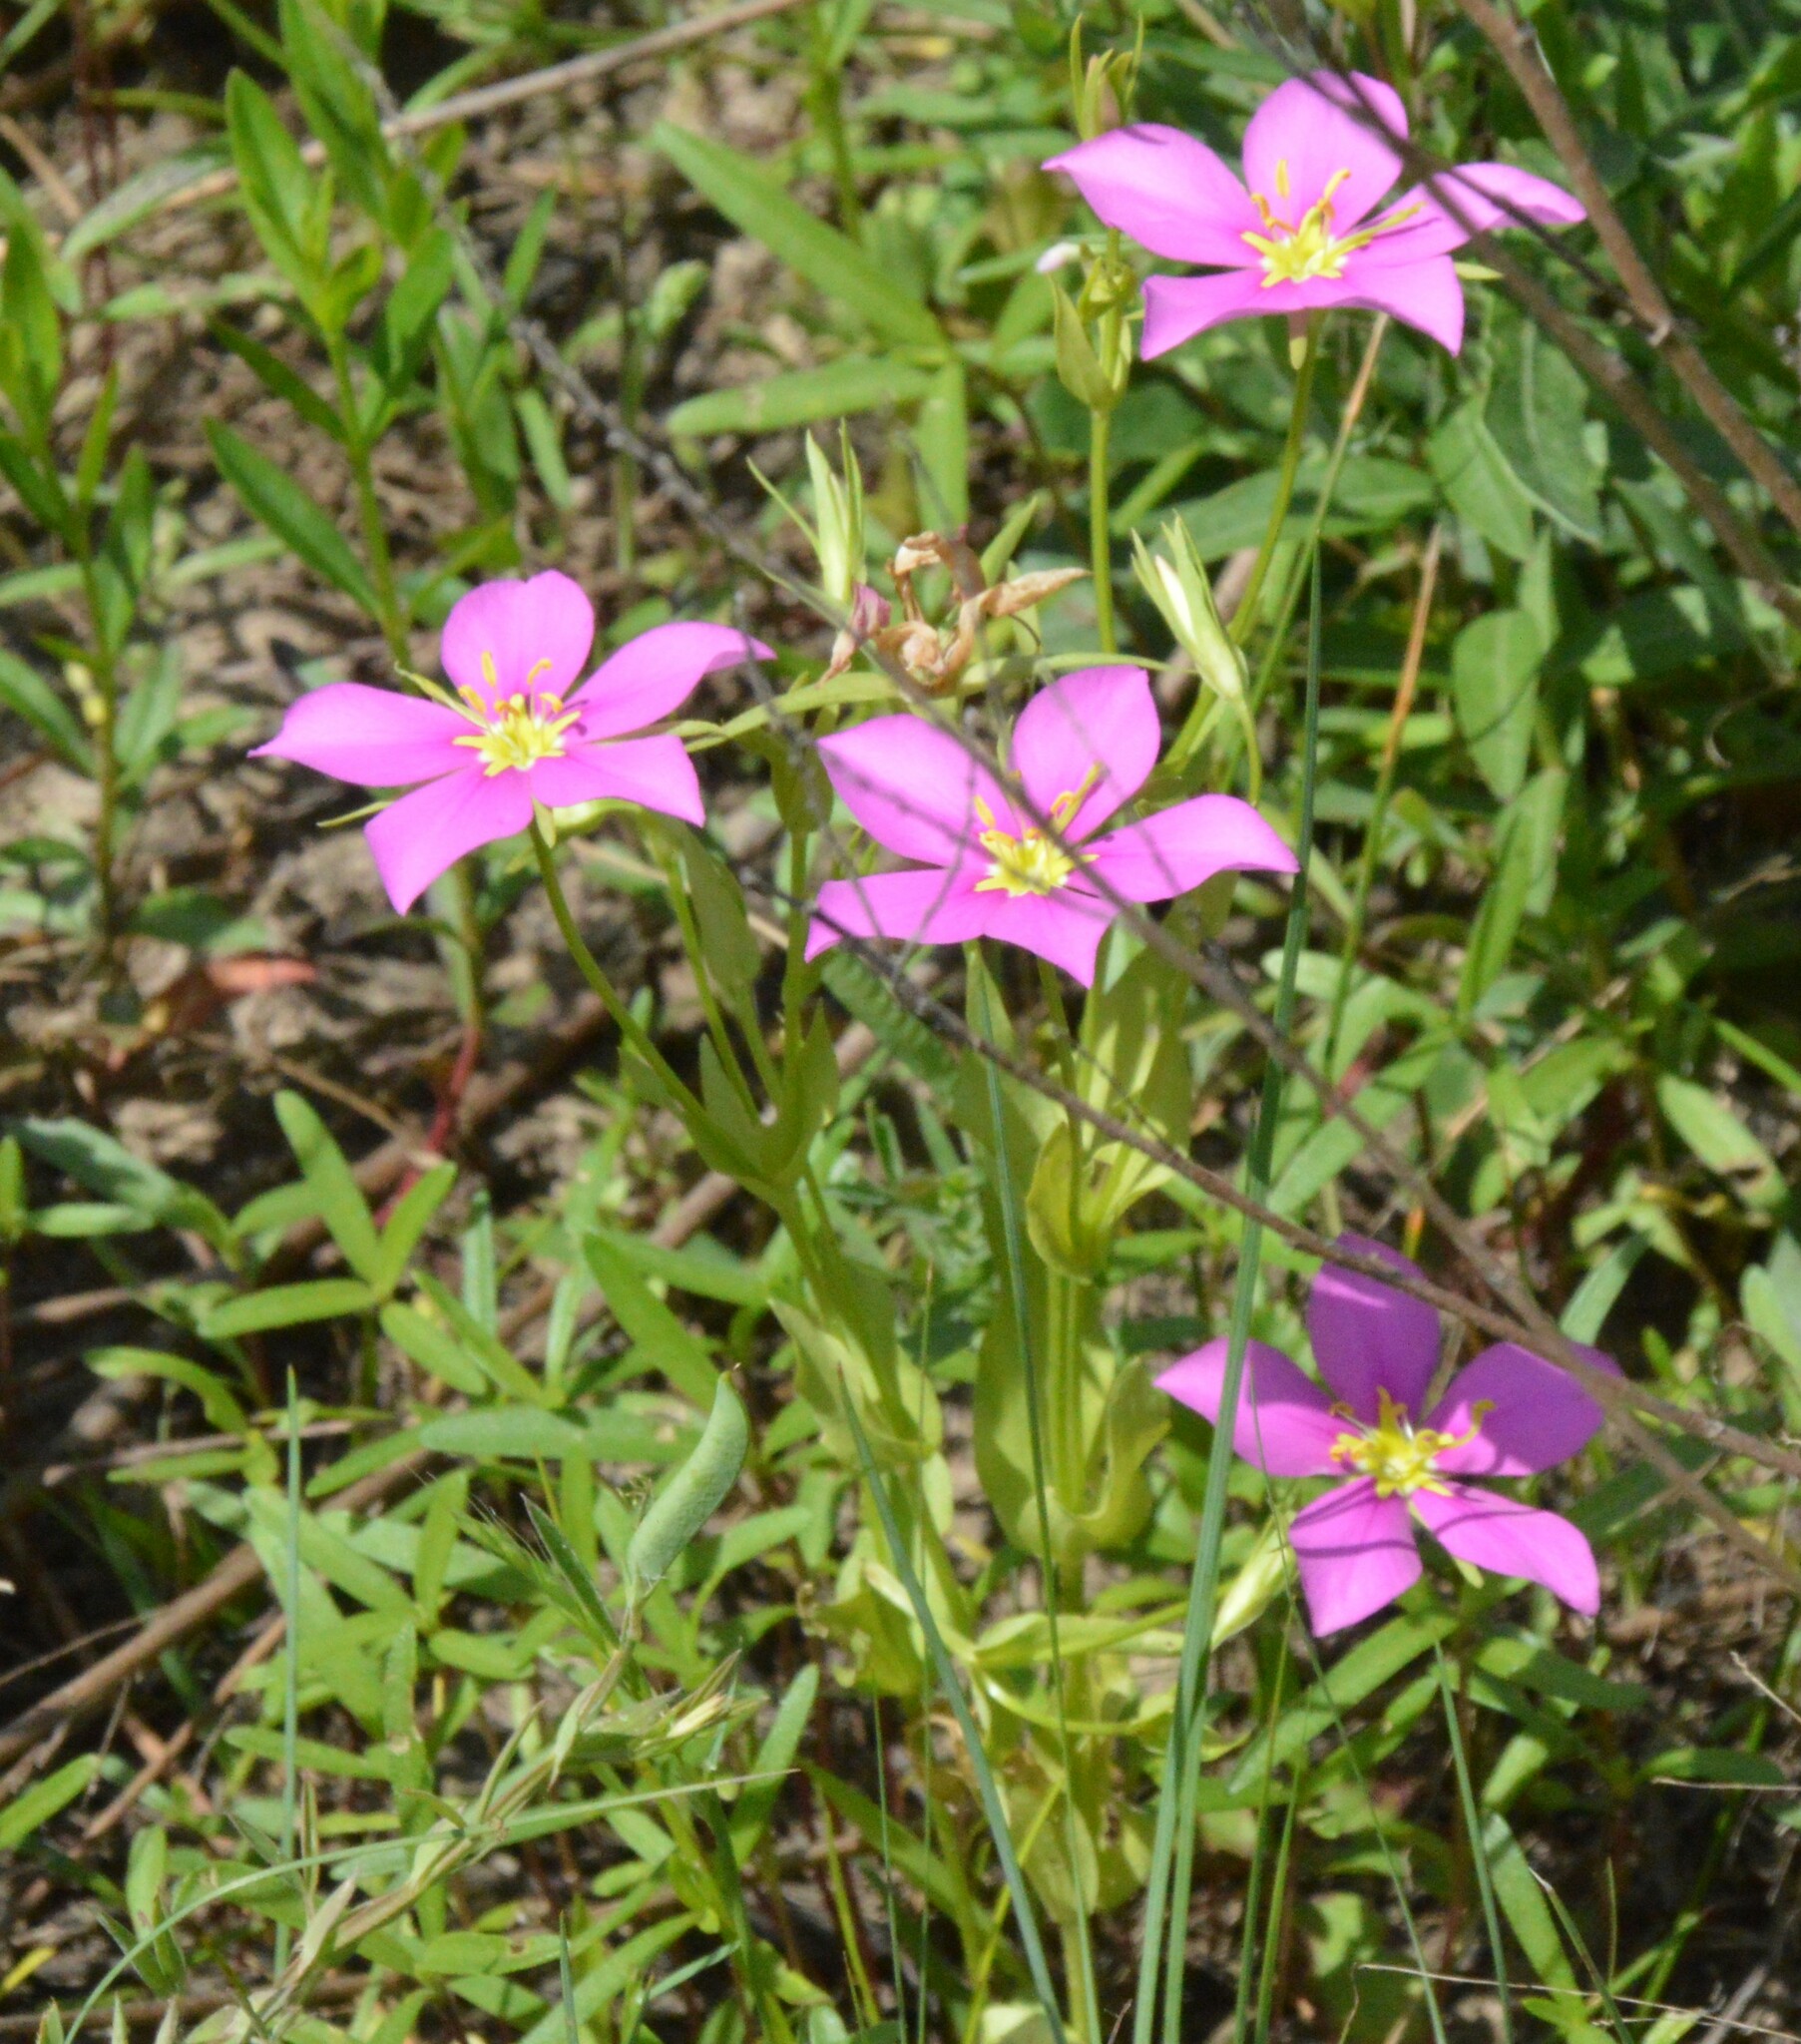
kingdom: Plantae
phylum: Tracheophyta
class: Magnoliopsida
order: Gentianales
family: Gentianaceae
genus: Sabatia
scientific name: Sabatia campestris
